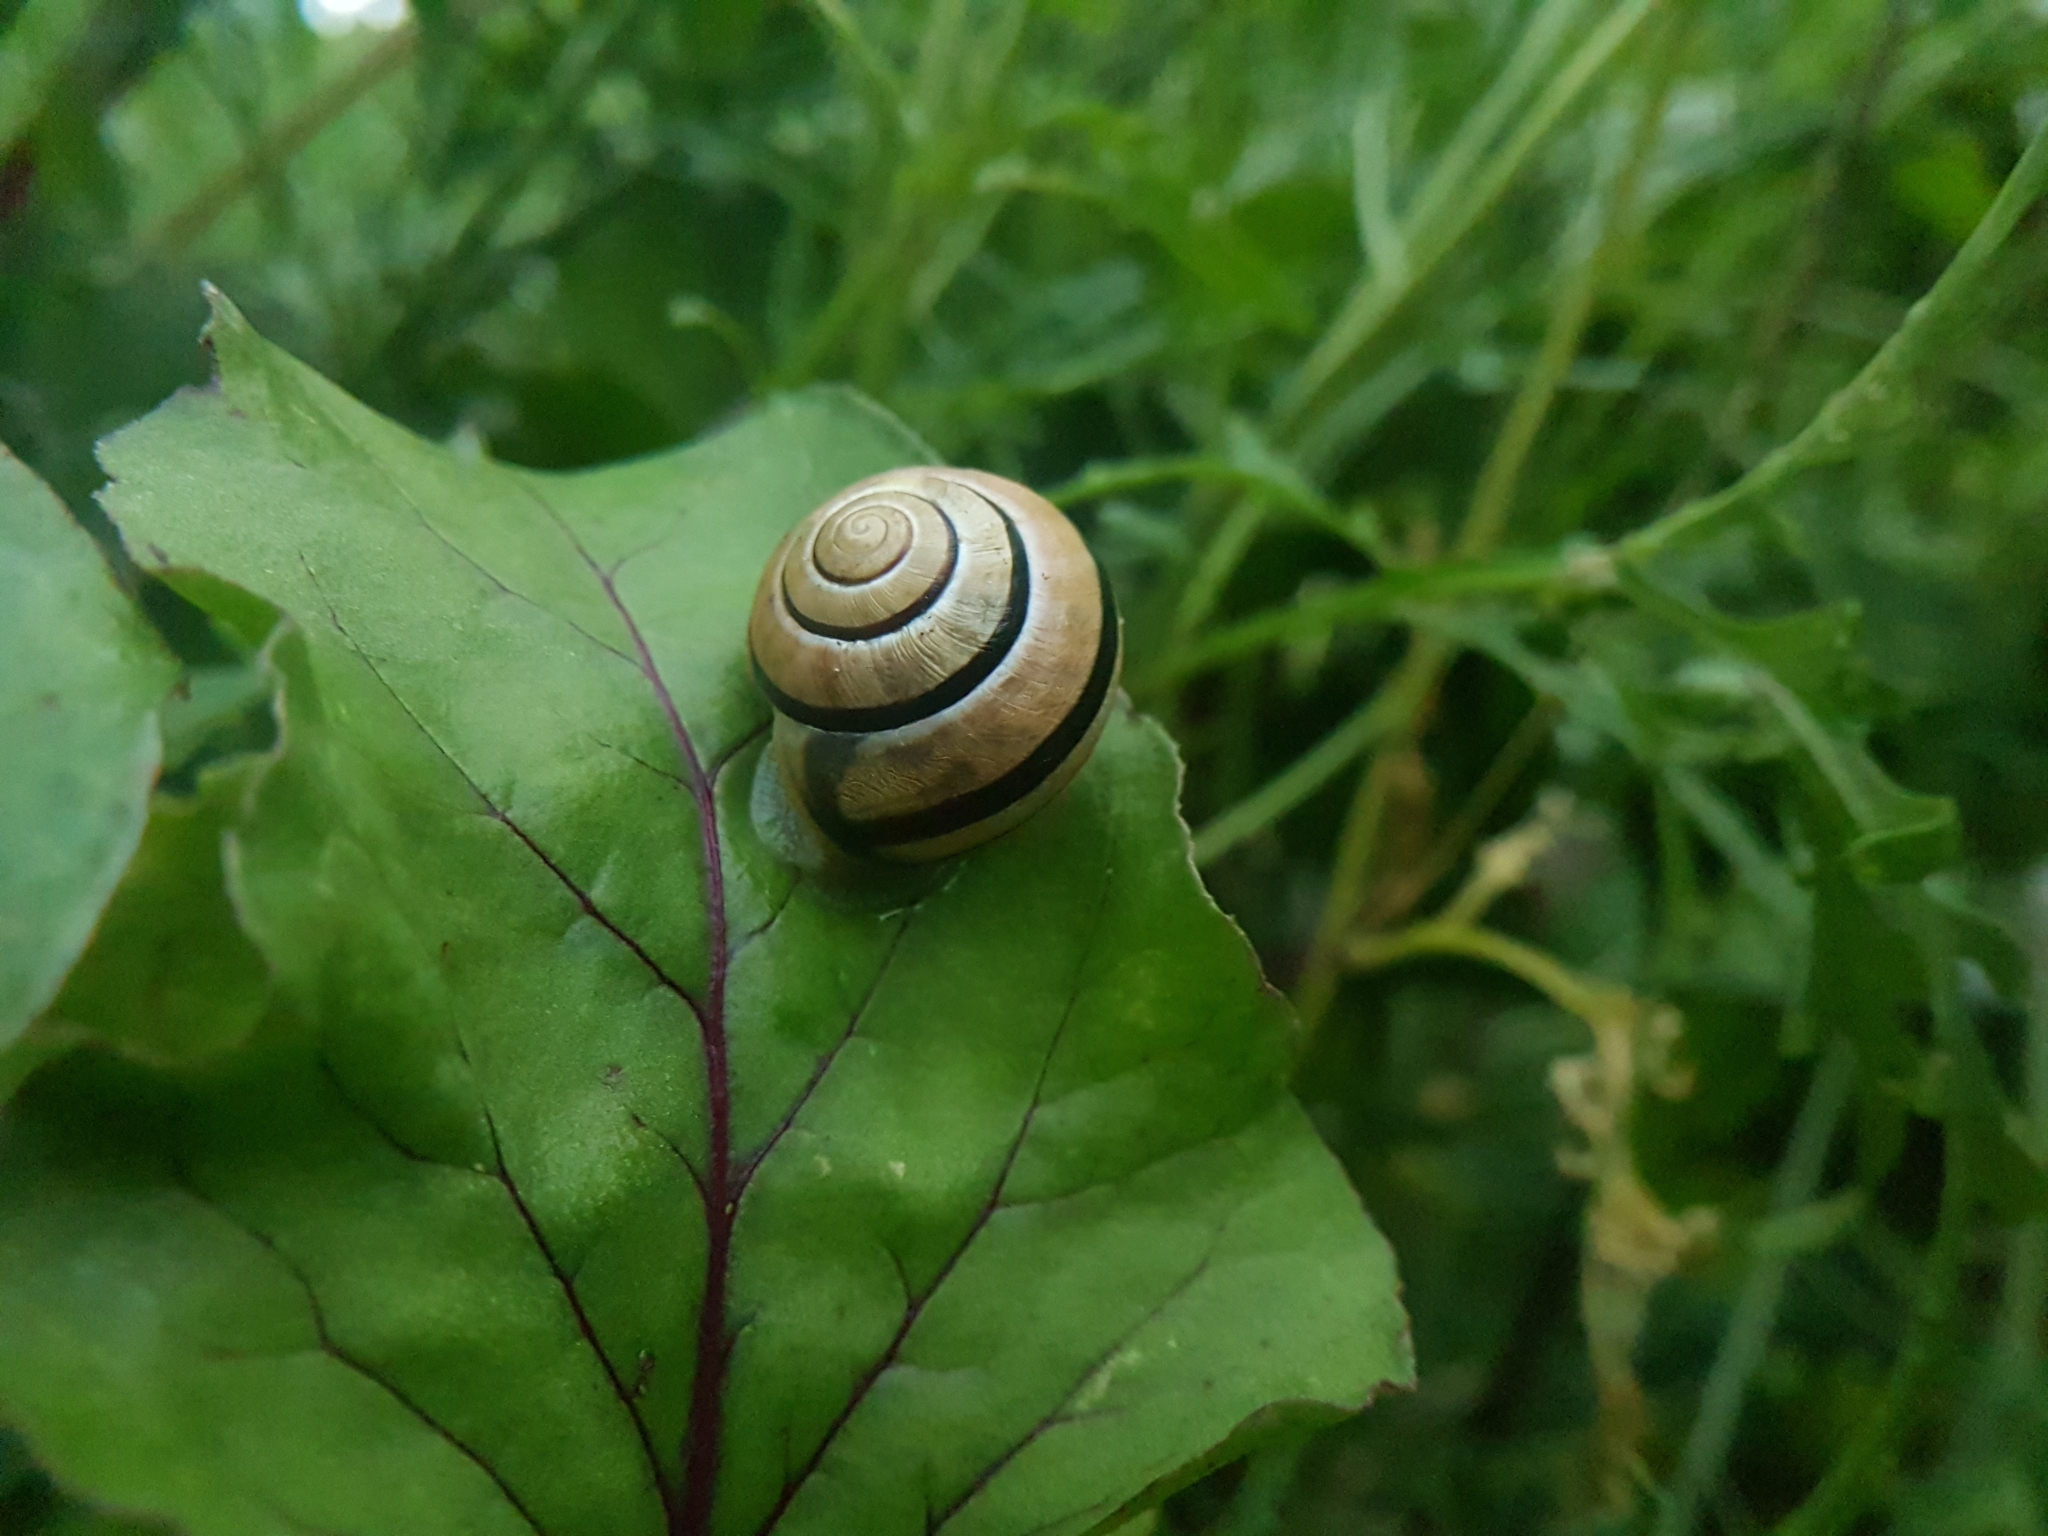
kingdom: Animalia
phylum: Mollusca
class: Gastropoda
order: Stylommatophora
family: Helicidae
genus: Cepaea
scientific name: Cepaea nemoralis
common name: Grovesnail
